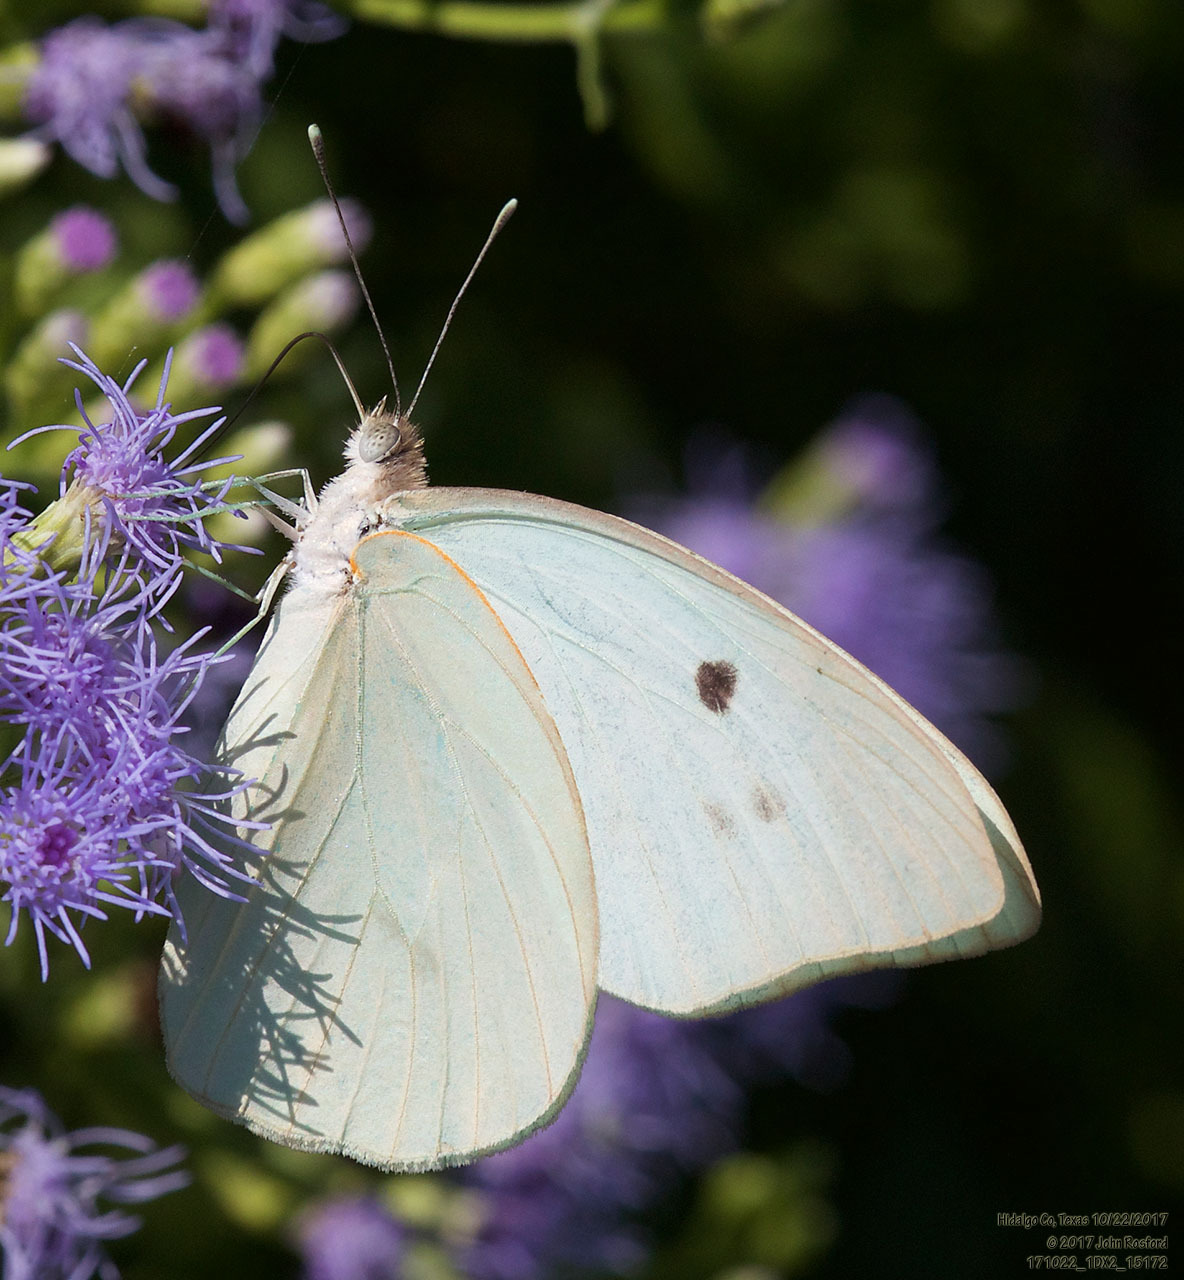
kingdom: Animalia
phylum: Arthropoda
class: Insecta
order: Lepidoptera
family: Pieridae
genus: Ganyra
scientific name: Ganyra josephina
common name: Giant white
